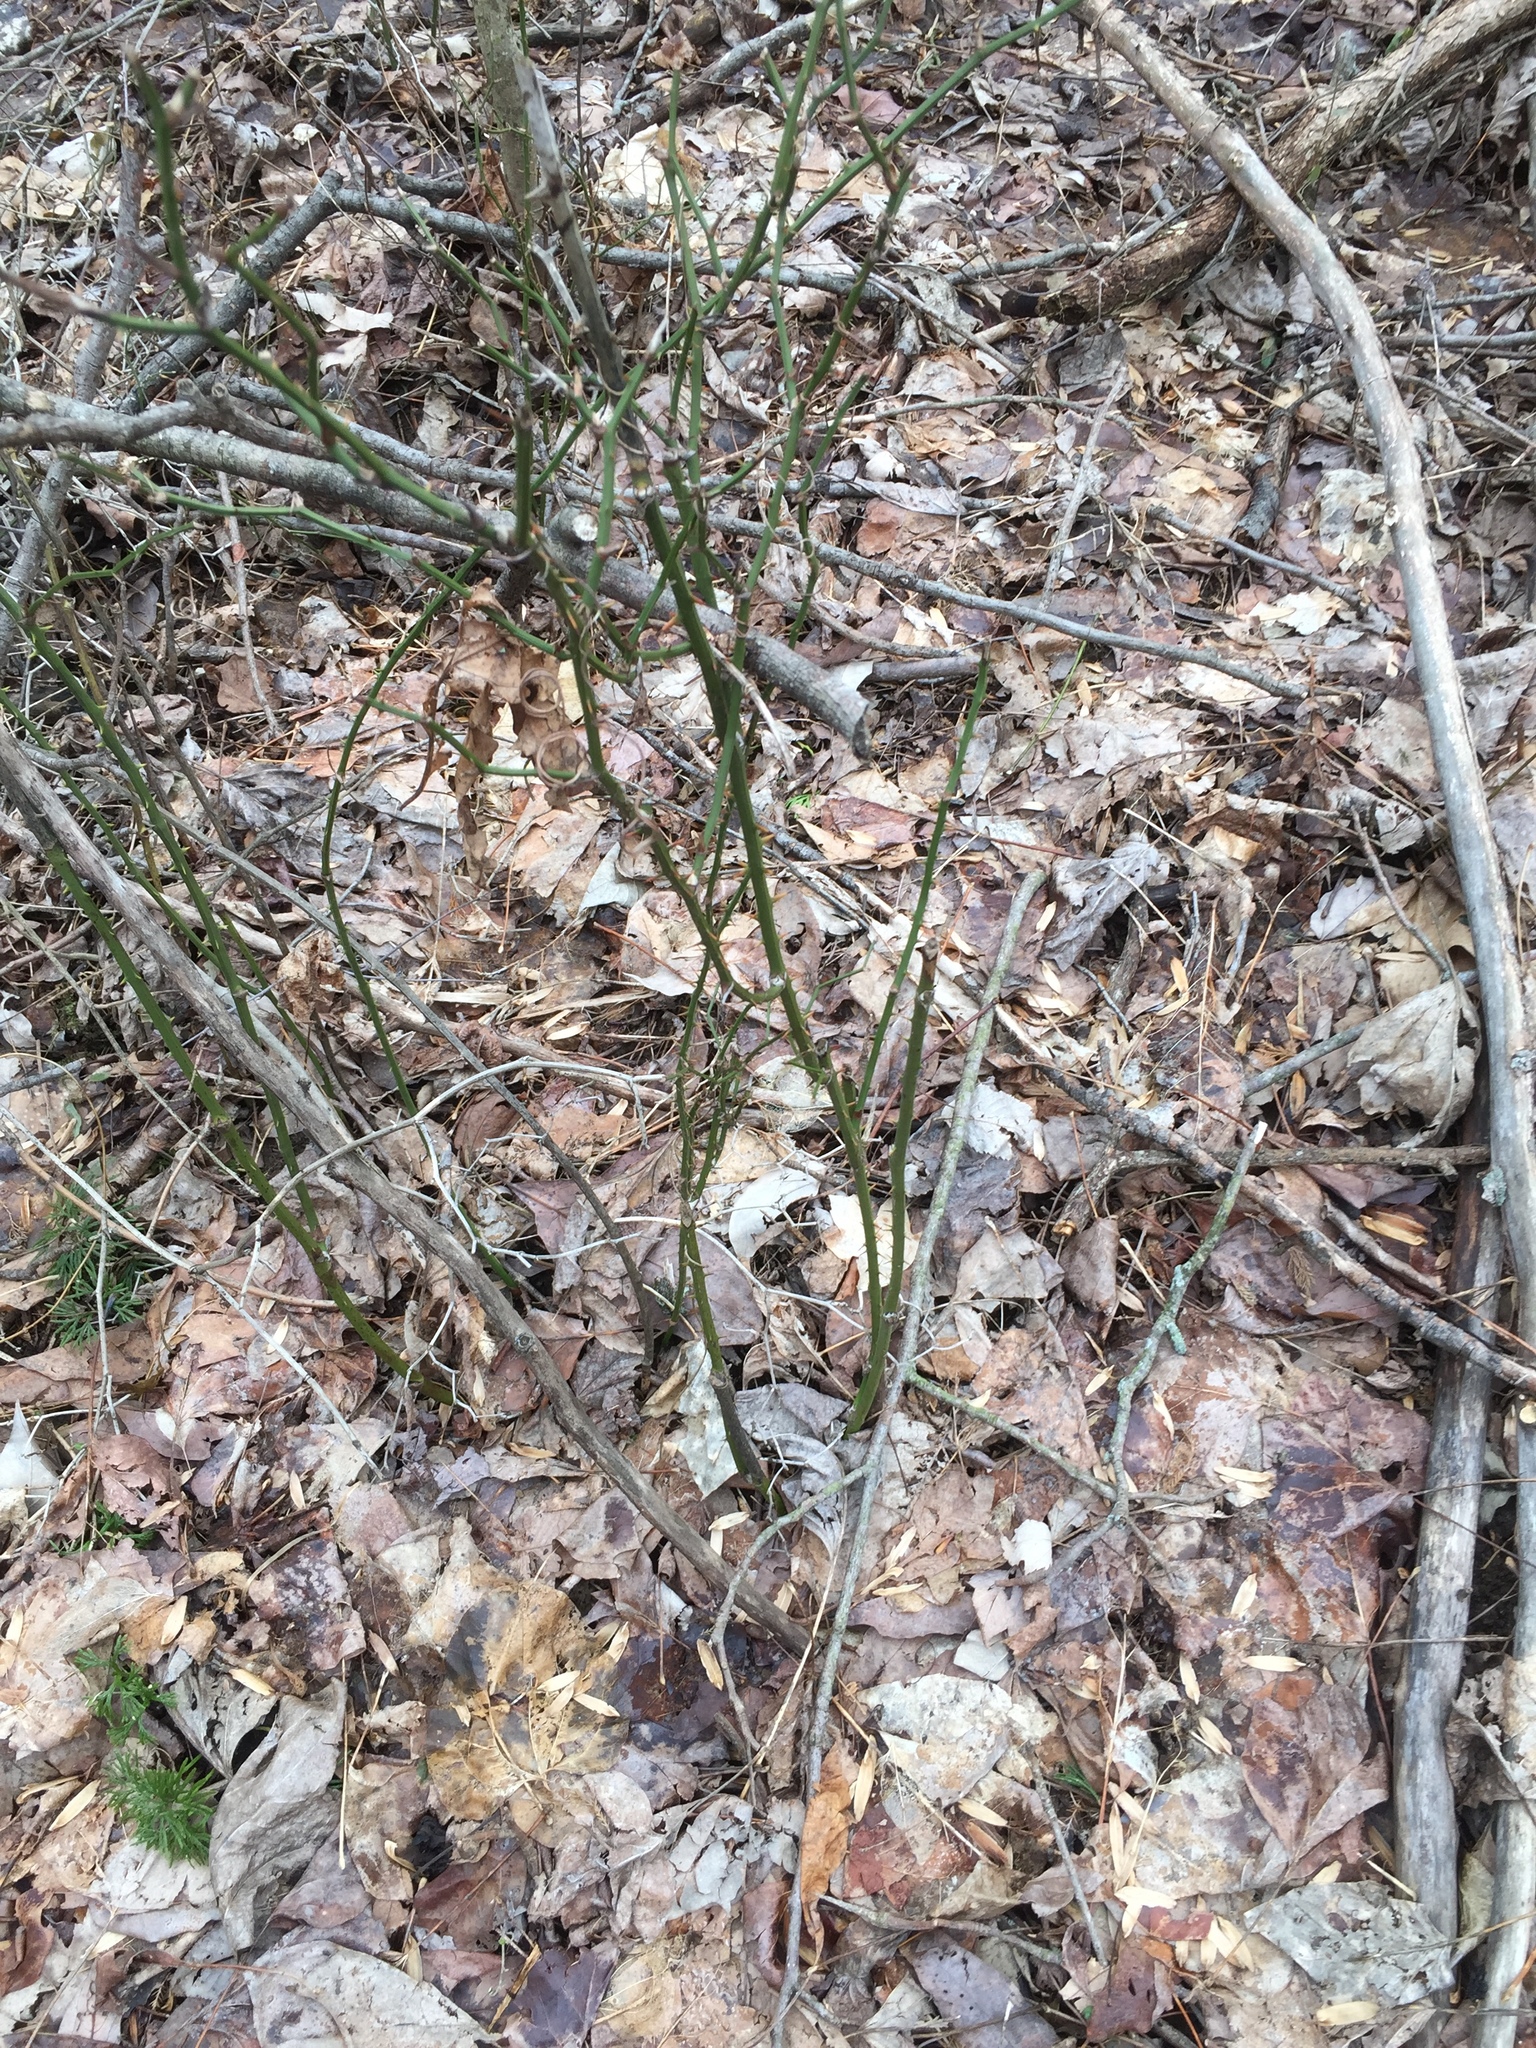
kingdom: Plantae
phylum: Tracheophyta
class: Liliopsida
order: Liliales
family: Smilacaceae
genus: Smilax
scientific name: Smilax rotundifolia
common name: Bullbriar
